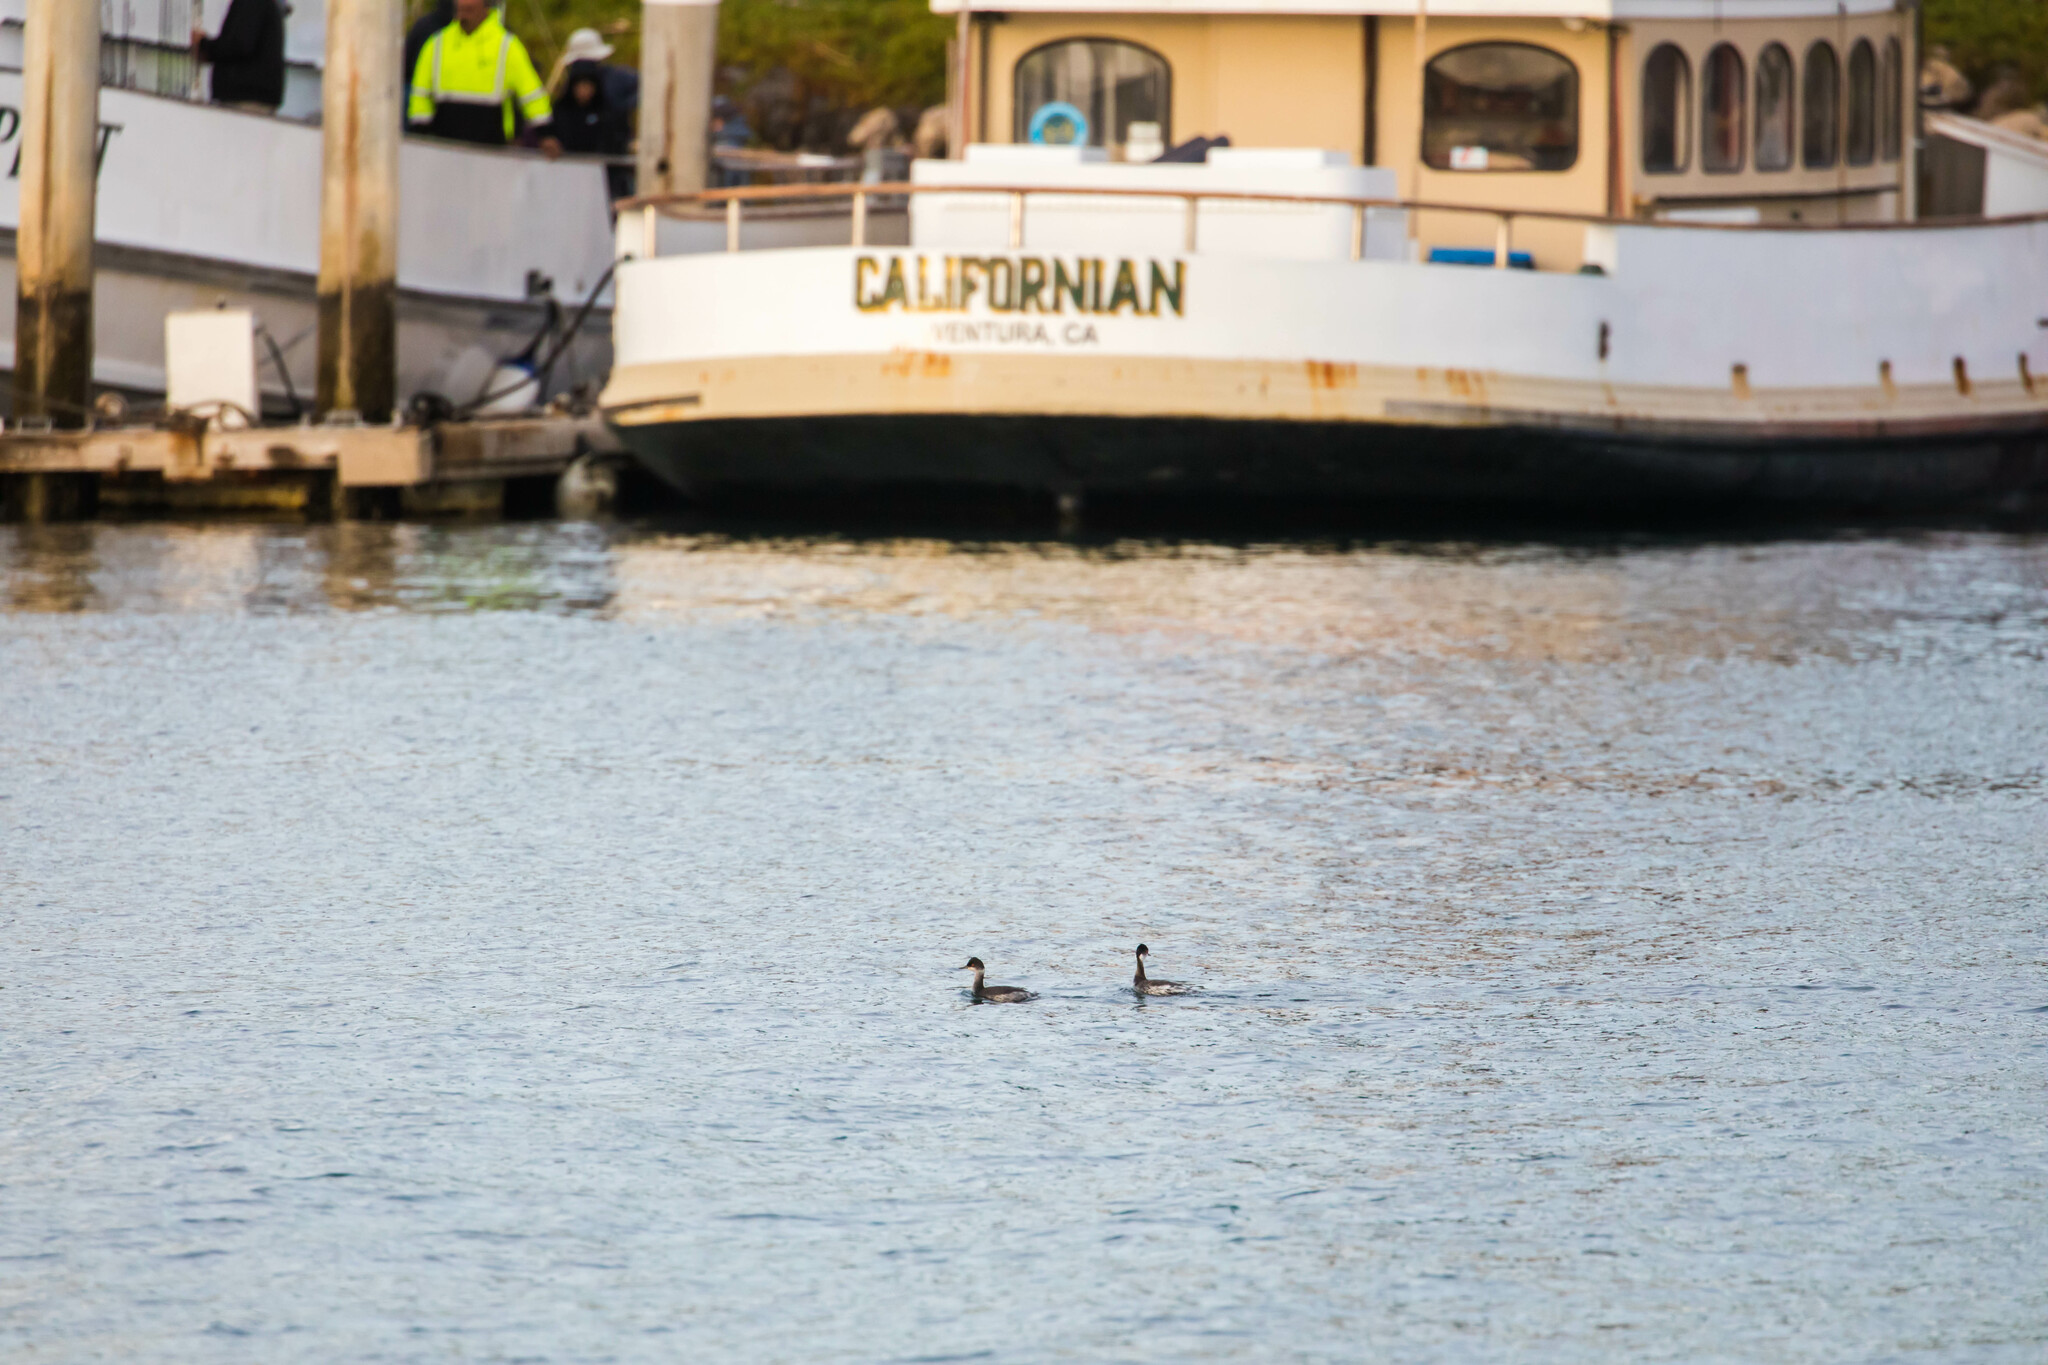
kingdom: Animalia
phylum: Chordata
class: Aves
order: Podicipediformes
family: Podicipedidae
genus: Podiceps
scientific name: Podiceps nigricollis
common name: Black-necked grebe
